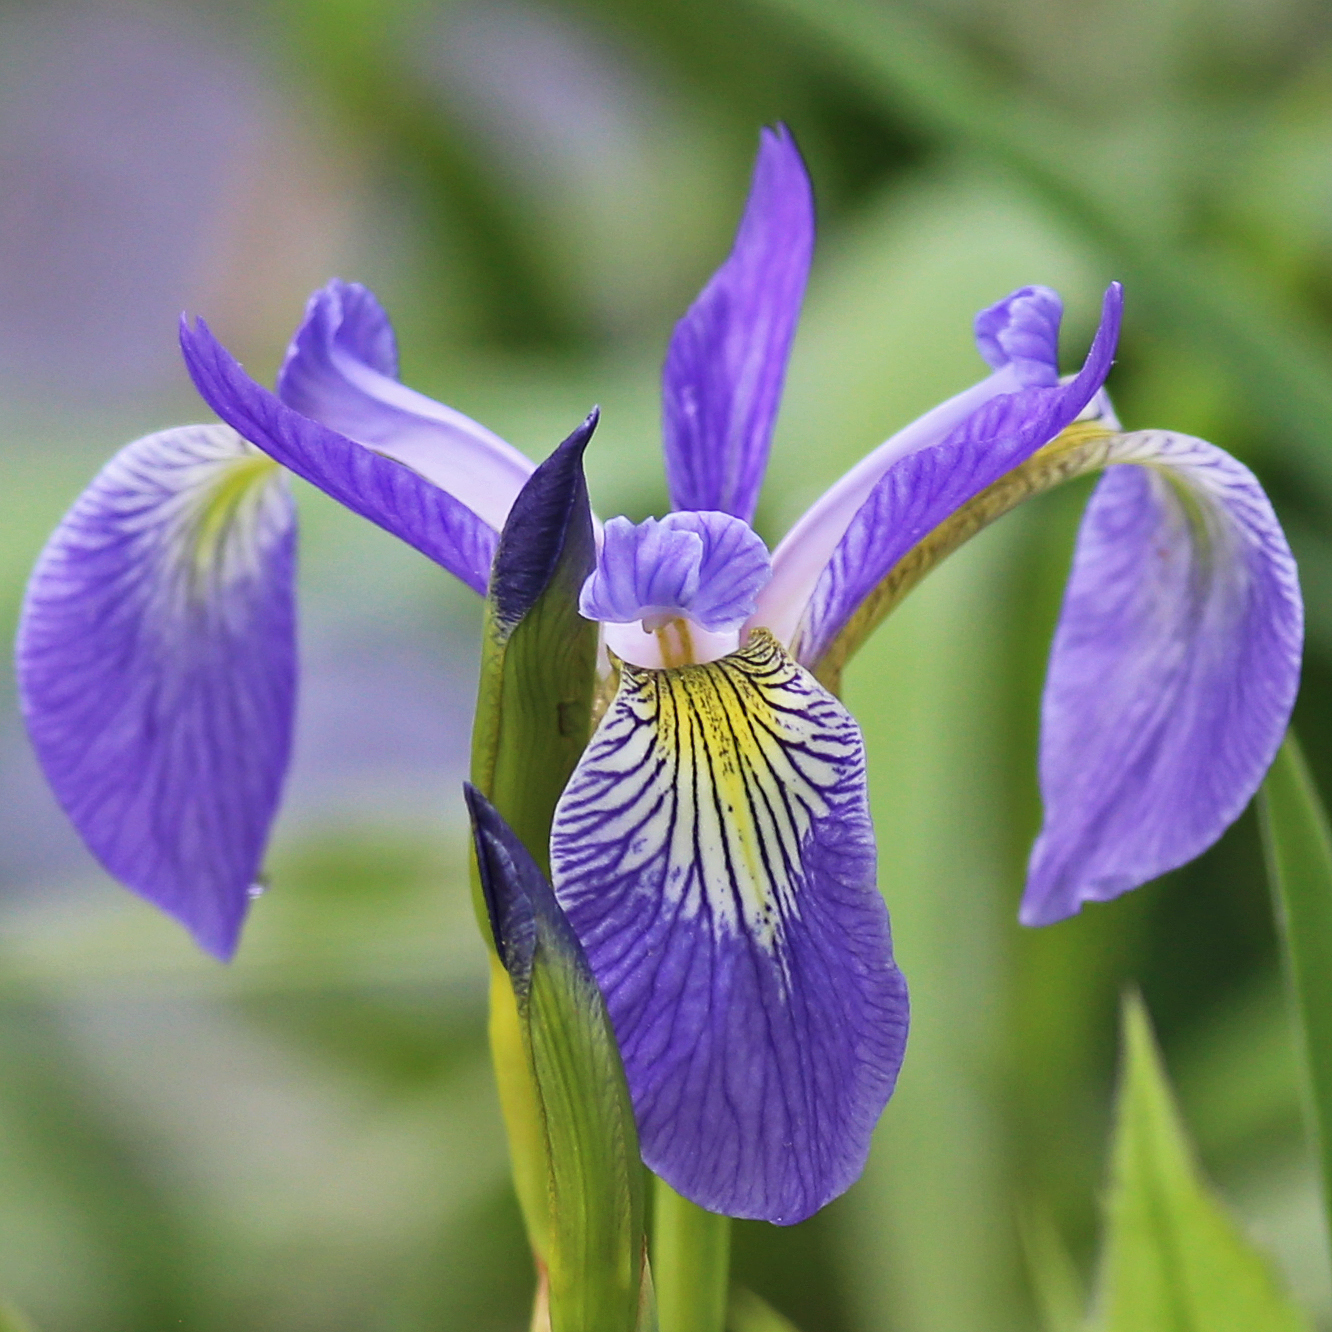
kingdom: Plantae
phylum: Tracheophyta
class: Liliopsida
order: Asparagales
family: Iridaceae
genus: Iris
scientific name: Iris versicolor
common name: Purple iris
